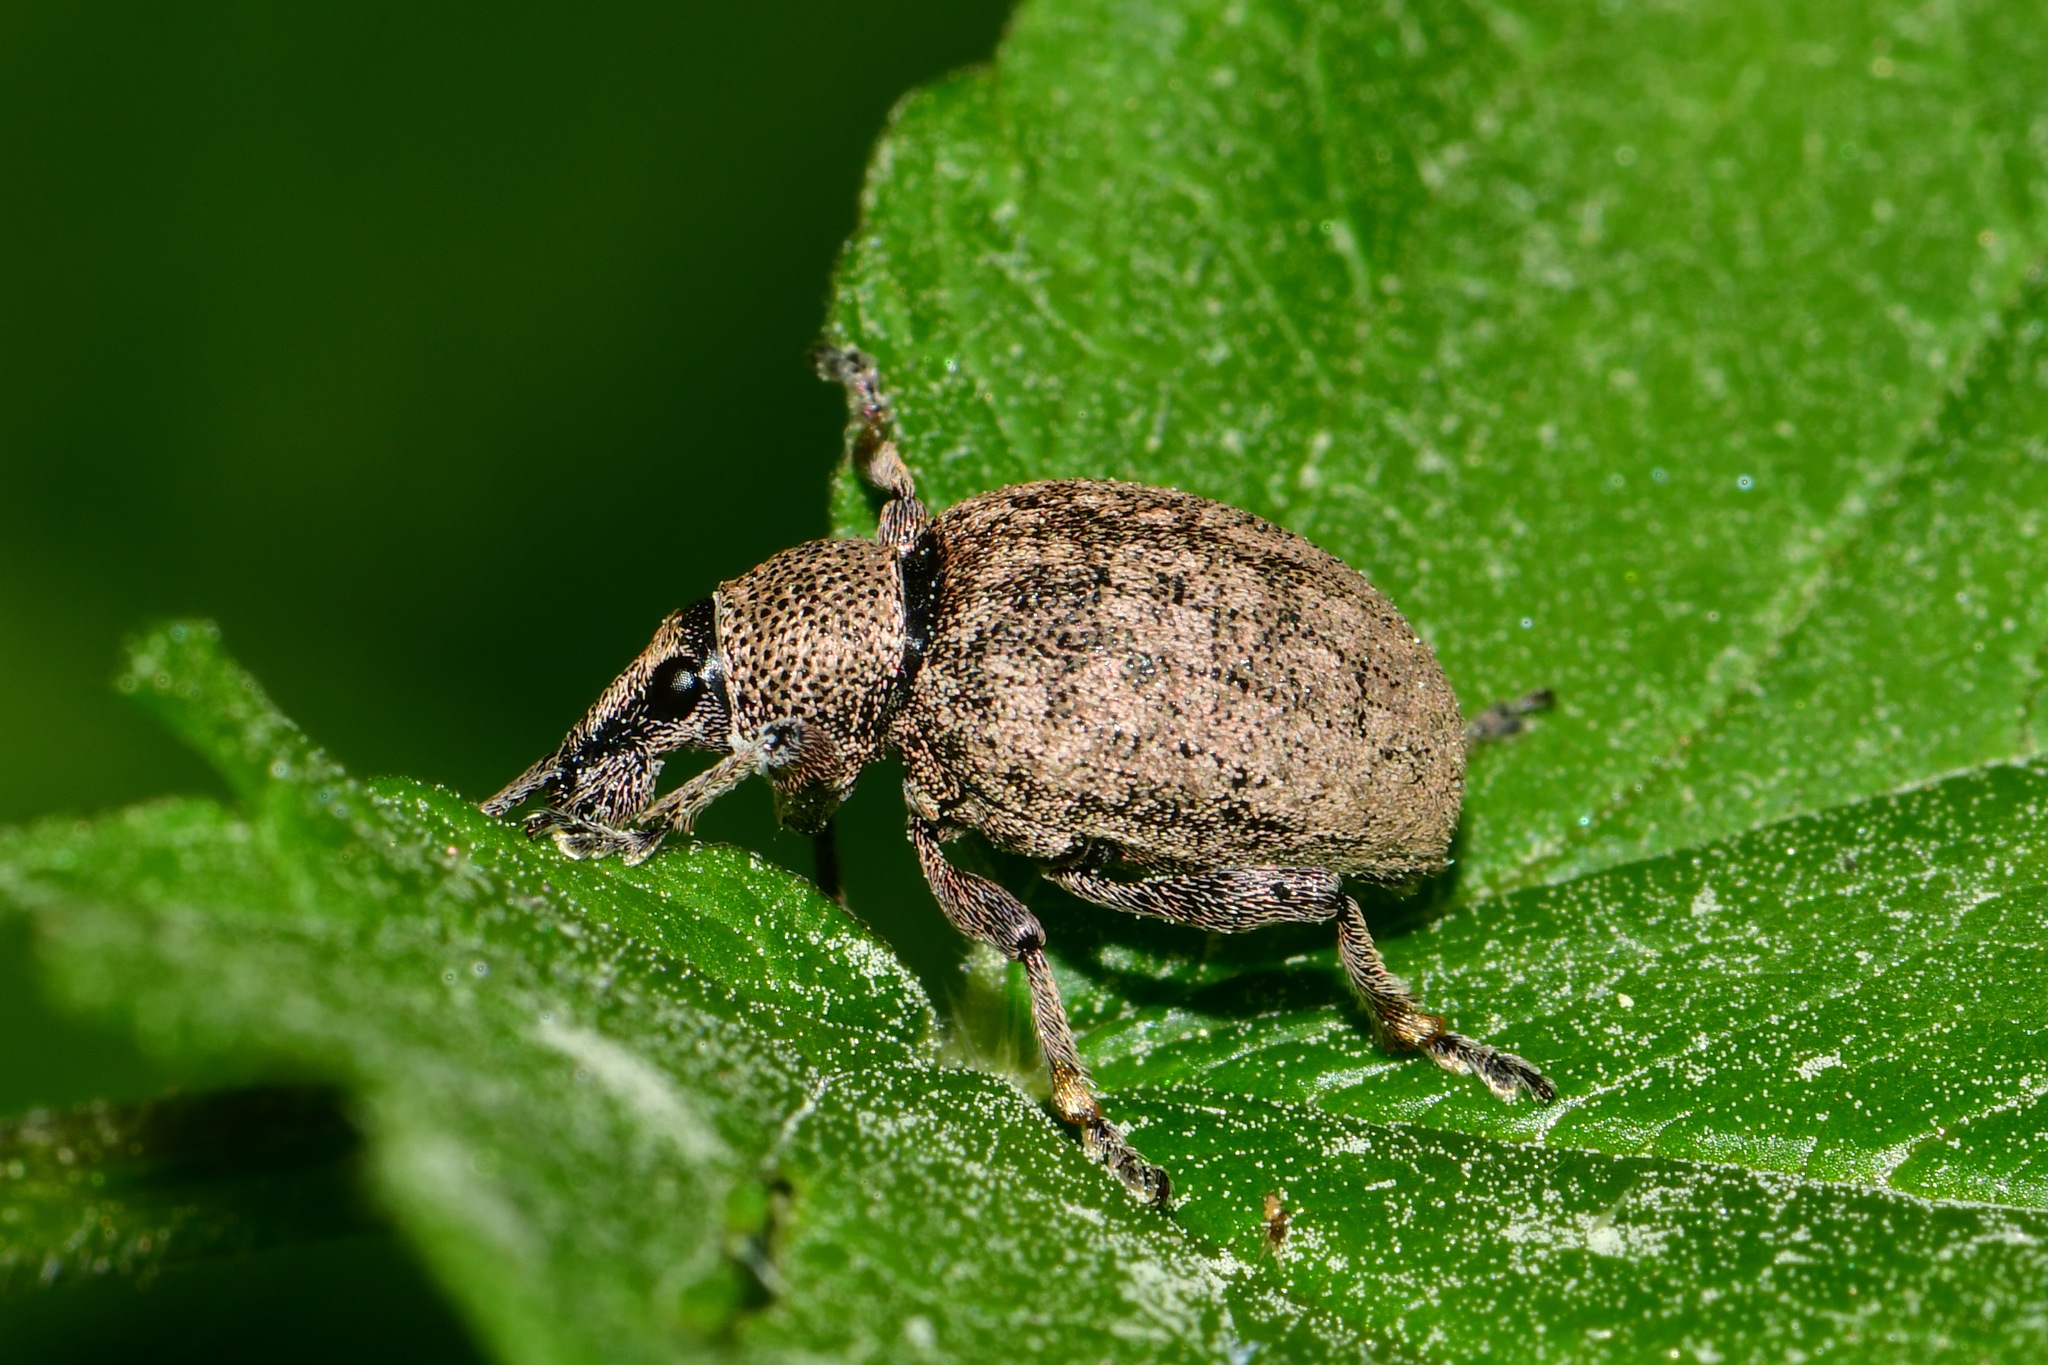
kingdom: Animalia
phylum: Arthropoda
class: Insecta
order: Coleoptera
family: Curculionidae
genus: Otiorhynchus
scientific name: Otiorhynchus ligustici
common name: Weevil
